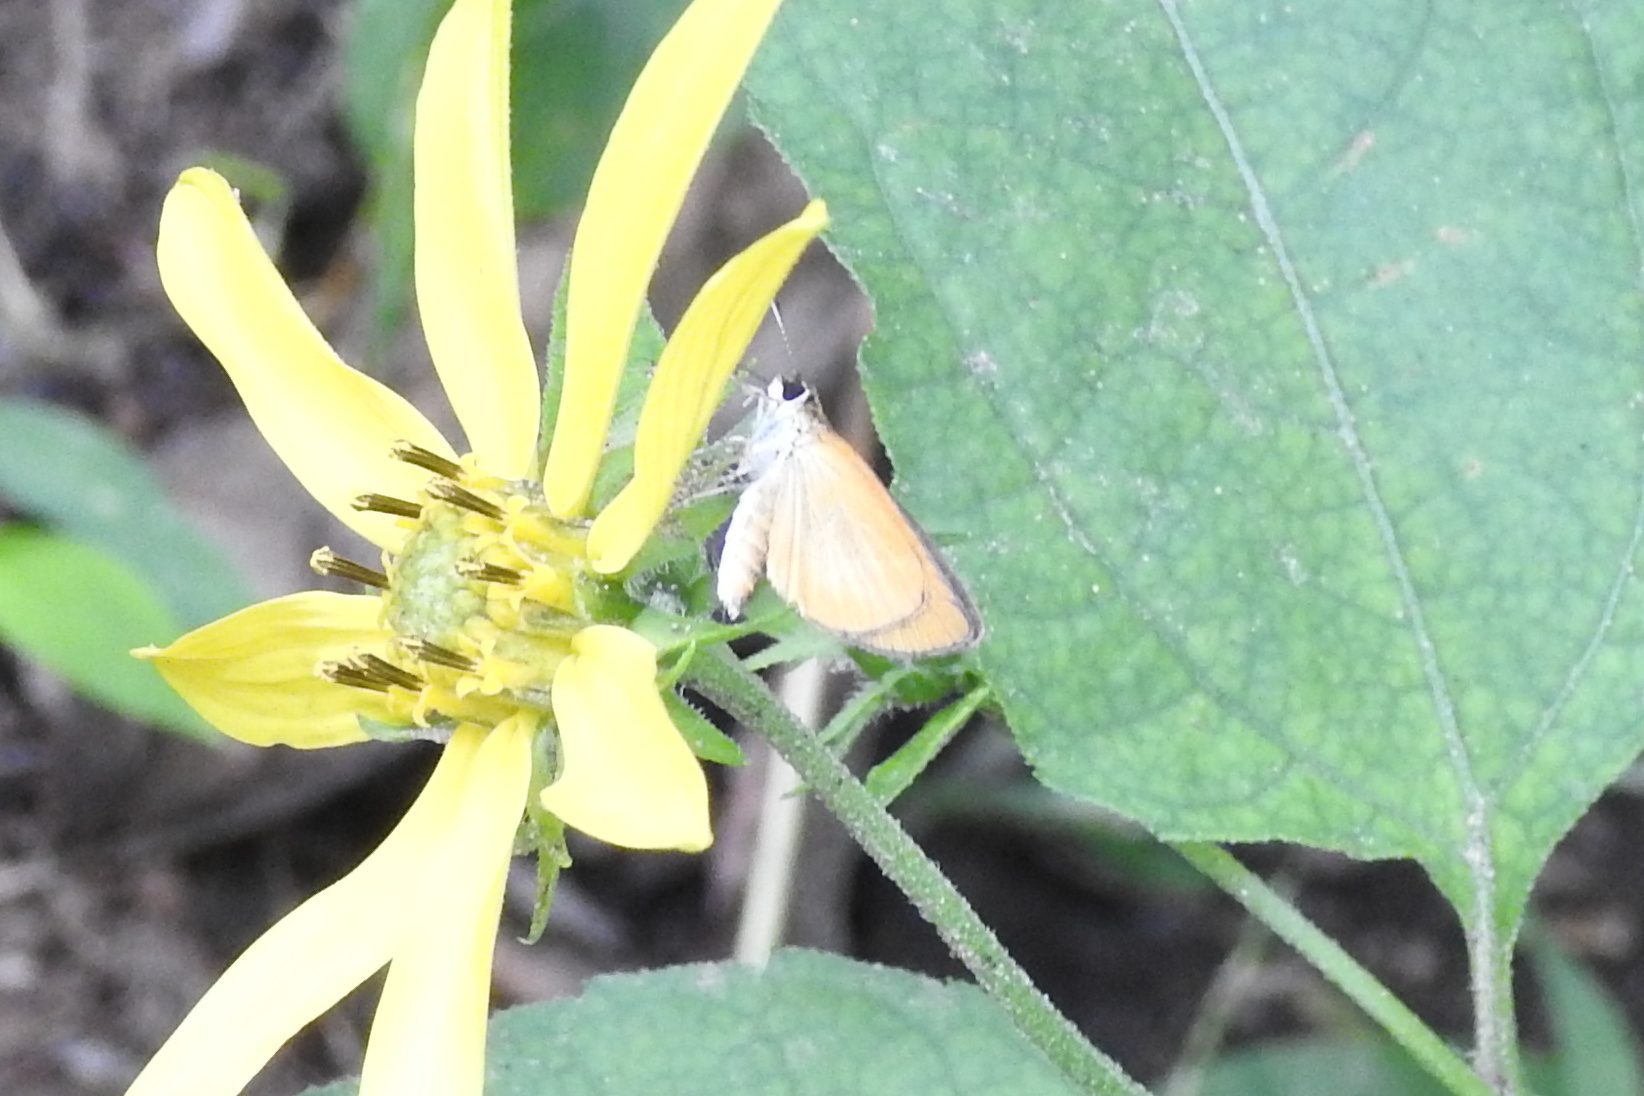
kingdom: Animalia
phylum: Arthropoda
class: Insecta
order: Lepidoptera
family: Hesperiidae
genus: Ancyloxypha
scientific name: Ancyloxypha numitor
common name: Least skipper
